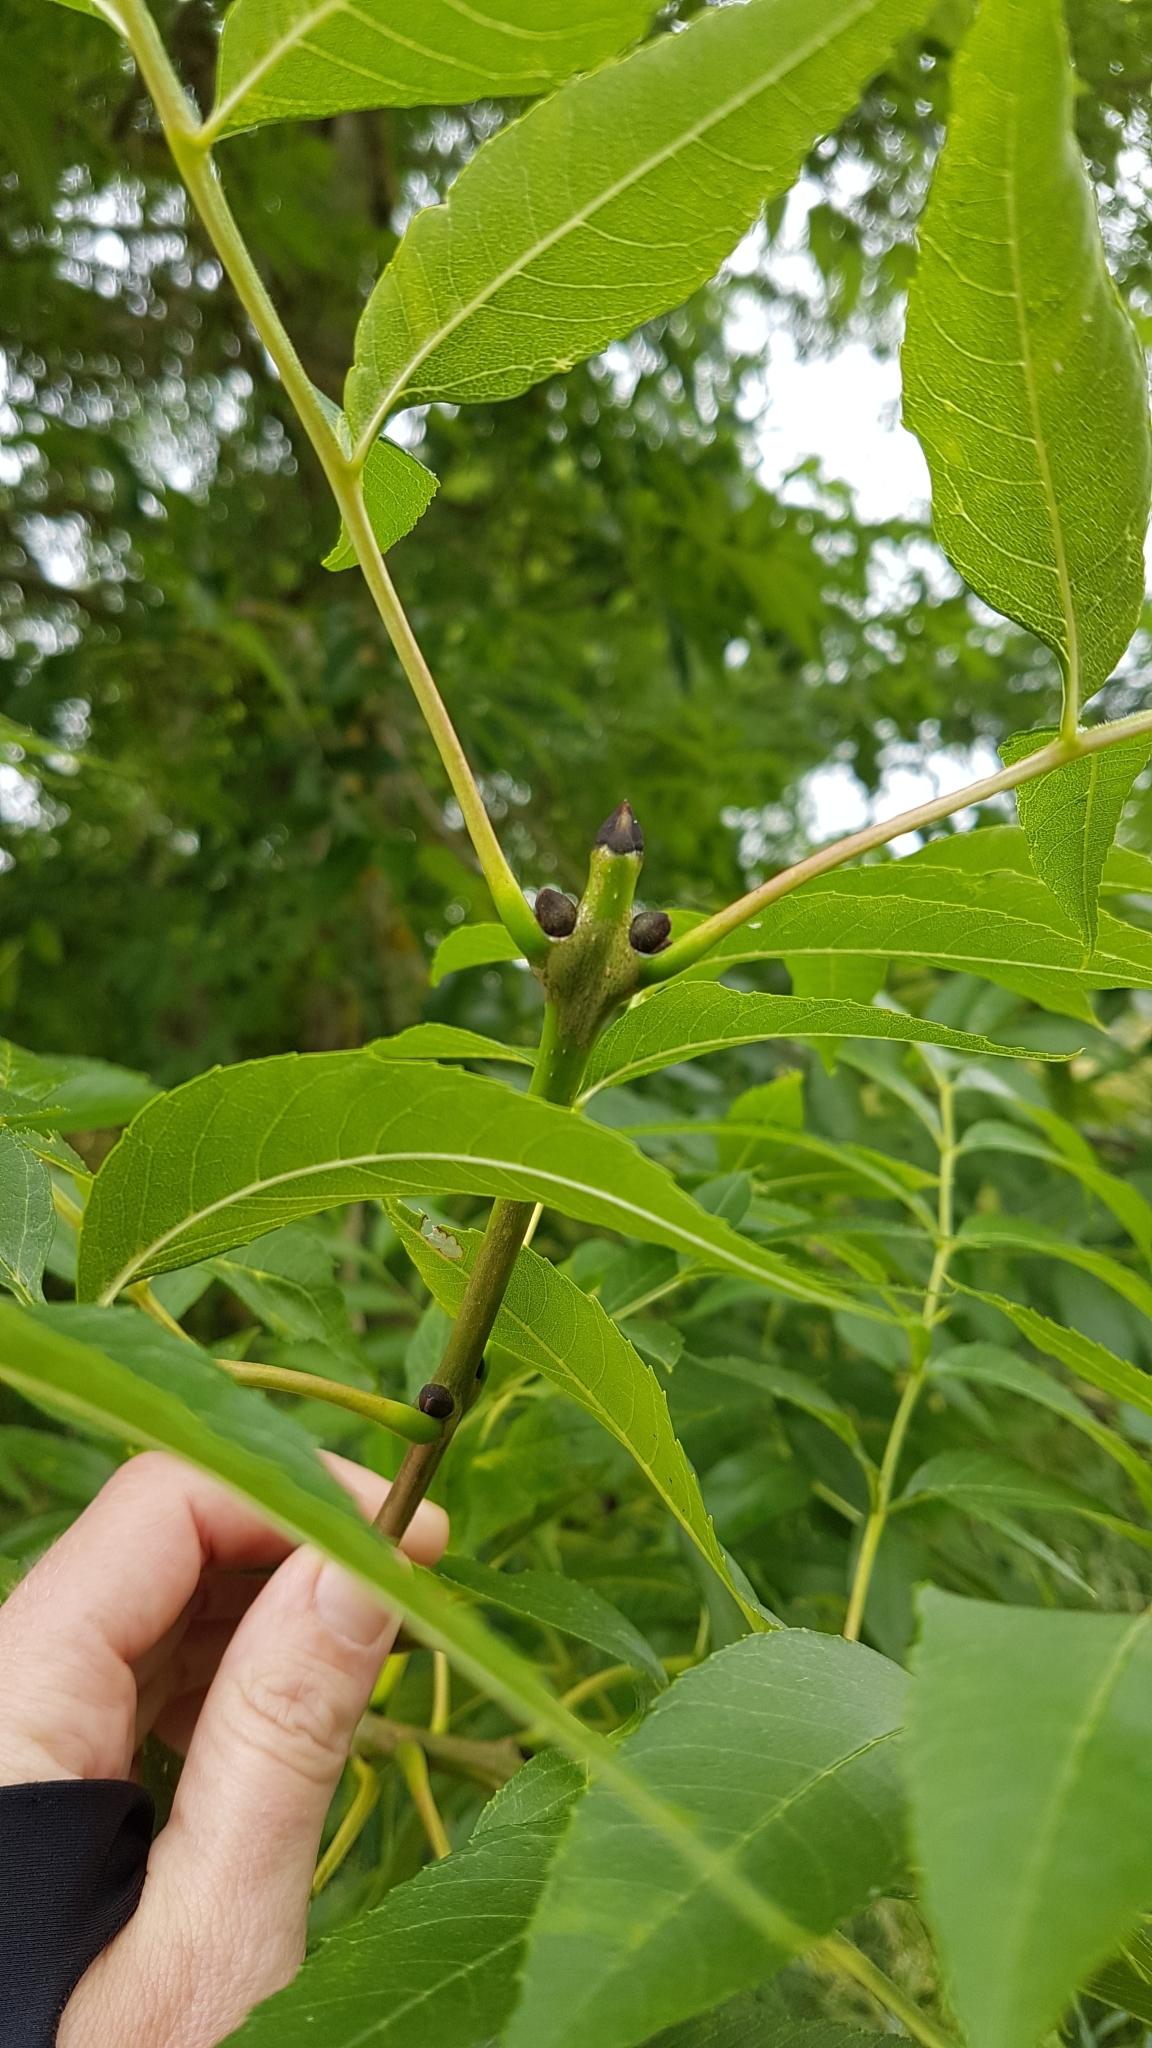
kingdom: Plantae
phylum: Tracheophyta
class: Magnoliopsida
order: Lamiales
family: Oleaceae
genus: Fraxinus
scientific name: Fraxinus excelsior
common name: European ash
